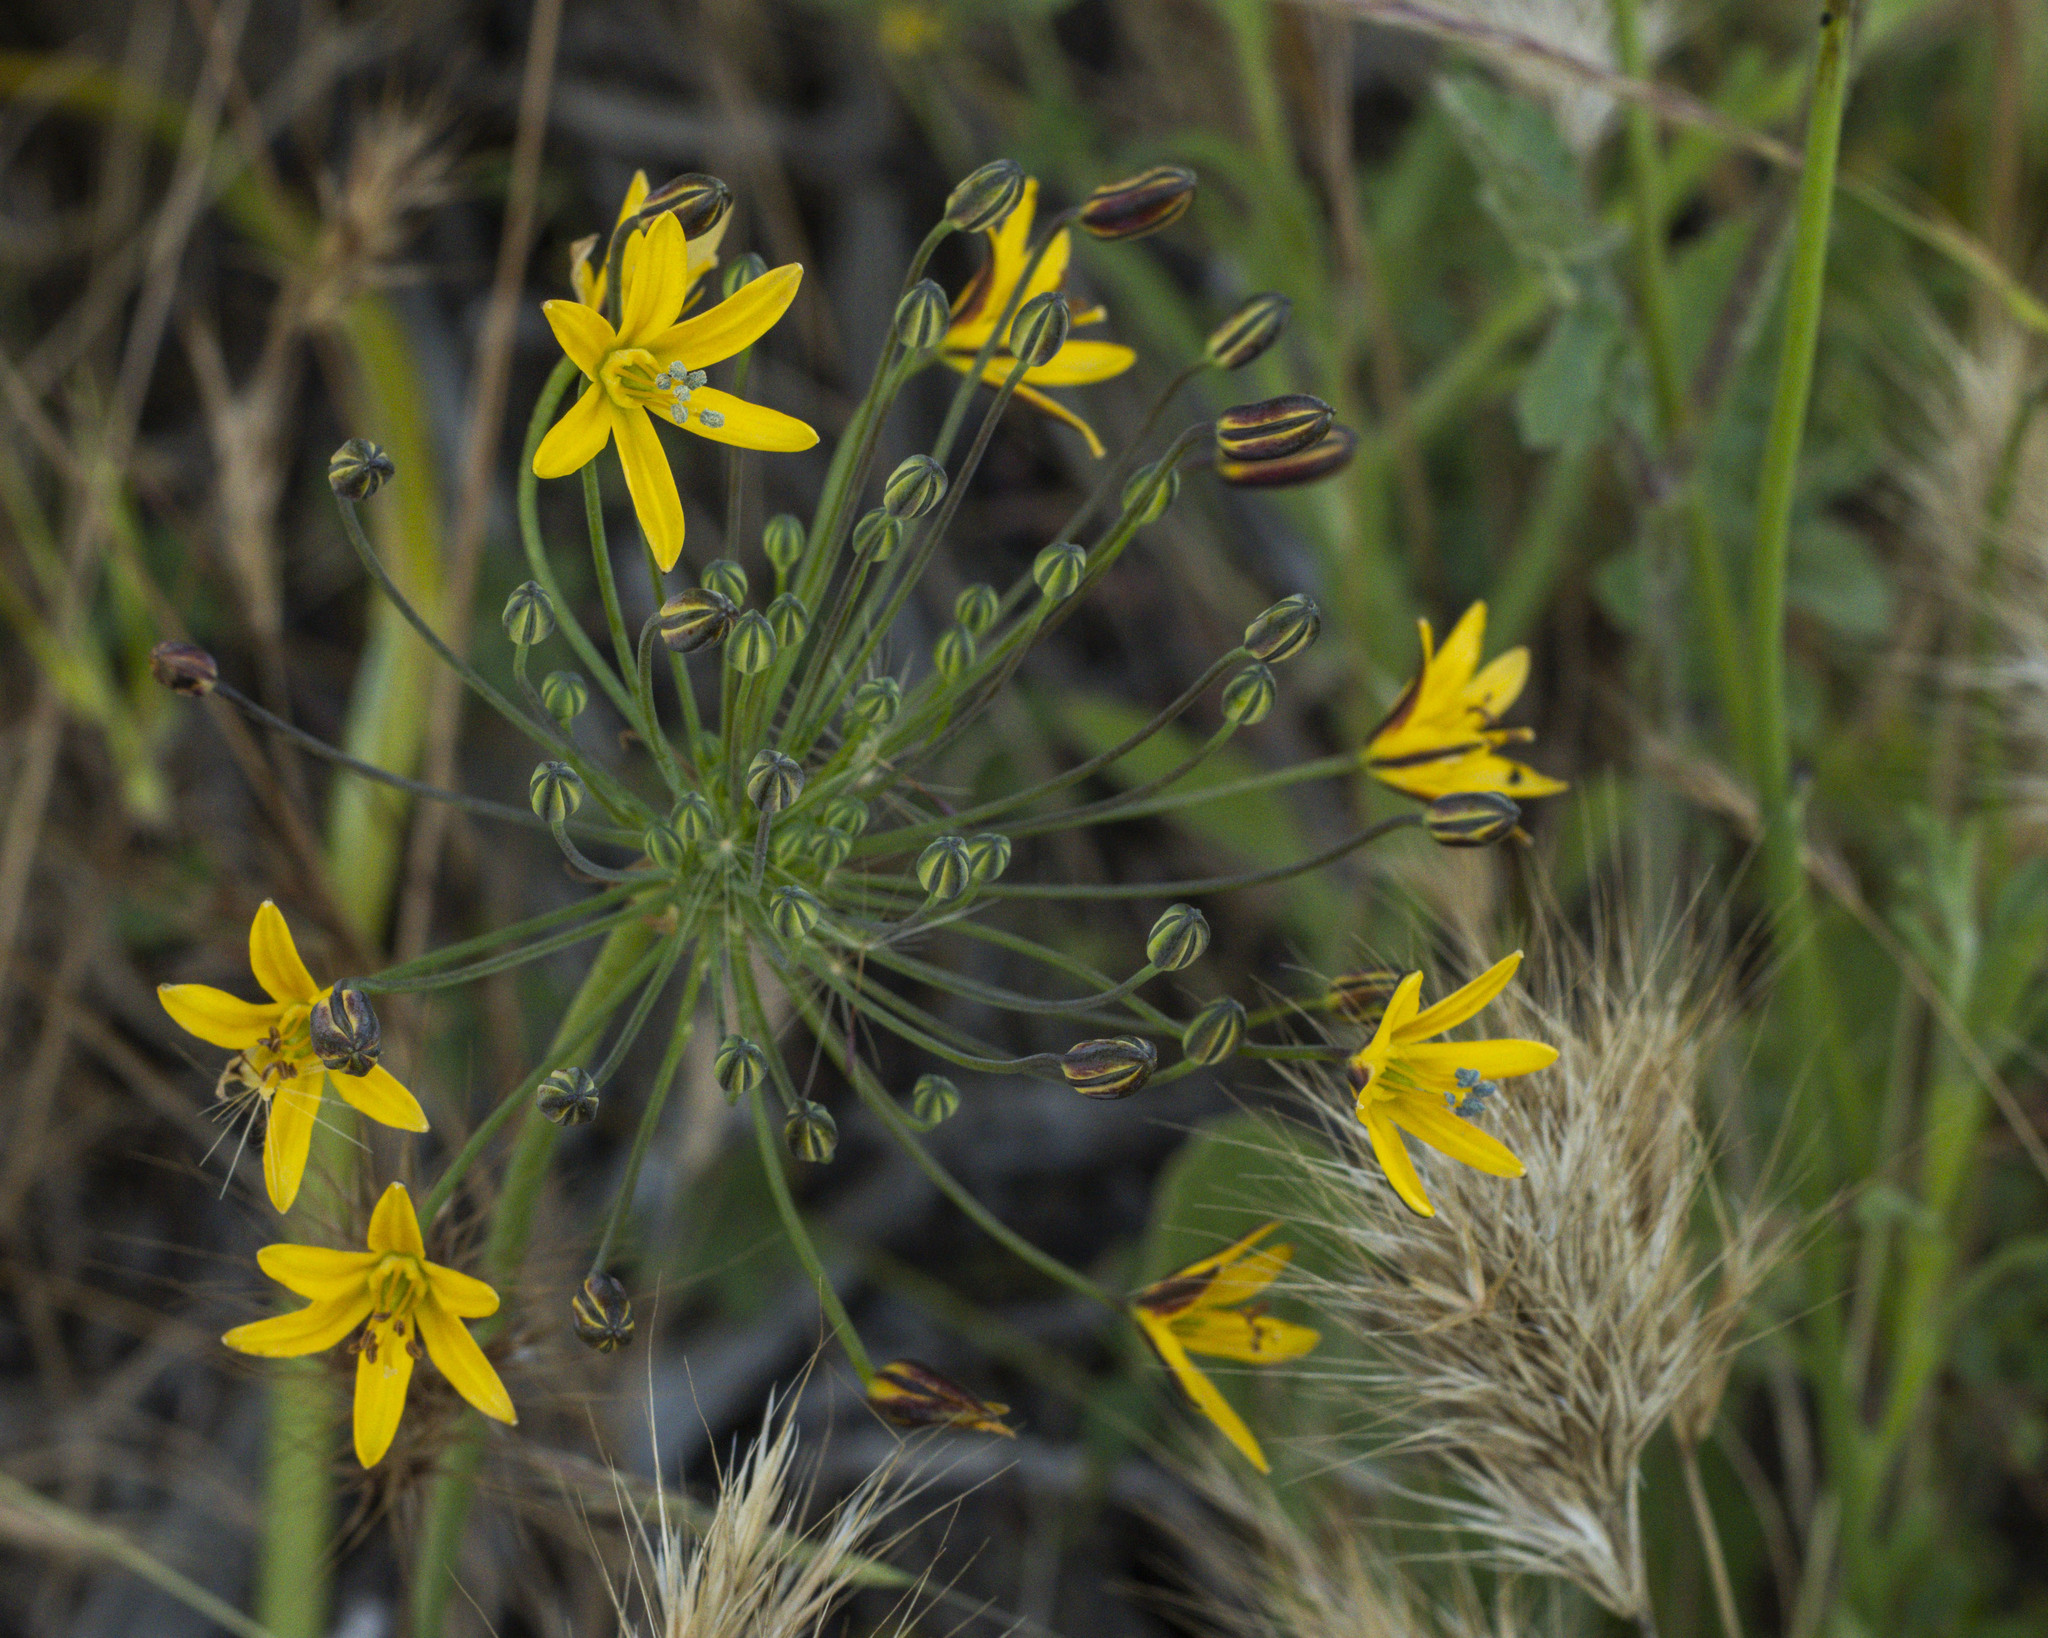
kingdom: Plantae
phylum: Tracheophyta
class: Liliopsida
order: Asparagales
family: Asparagaceae
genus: Bloomeria
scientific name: Bloomeria crocea
